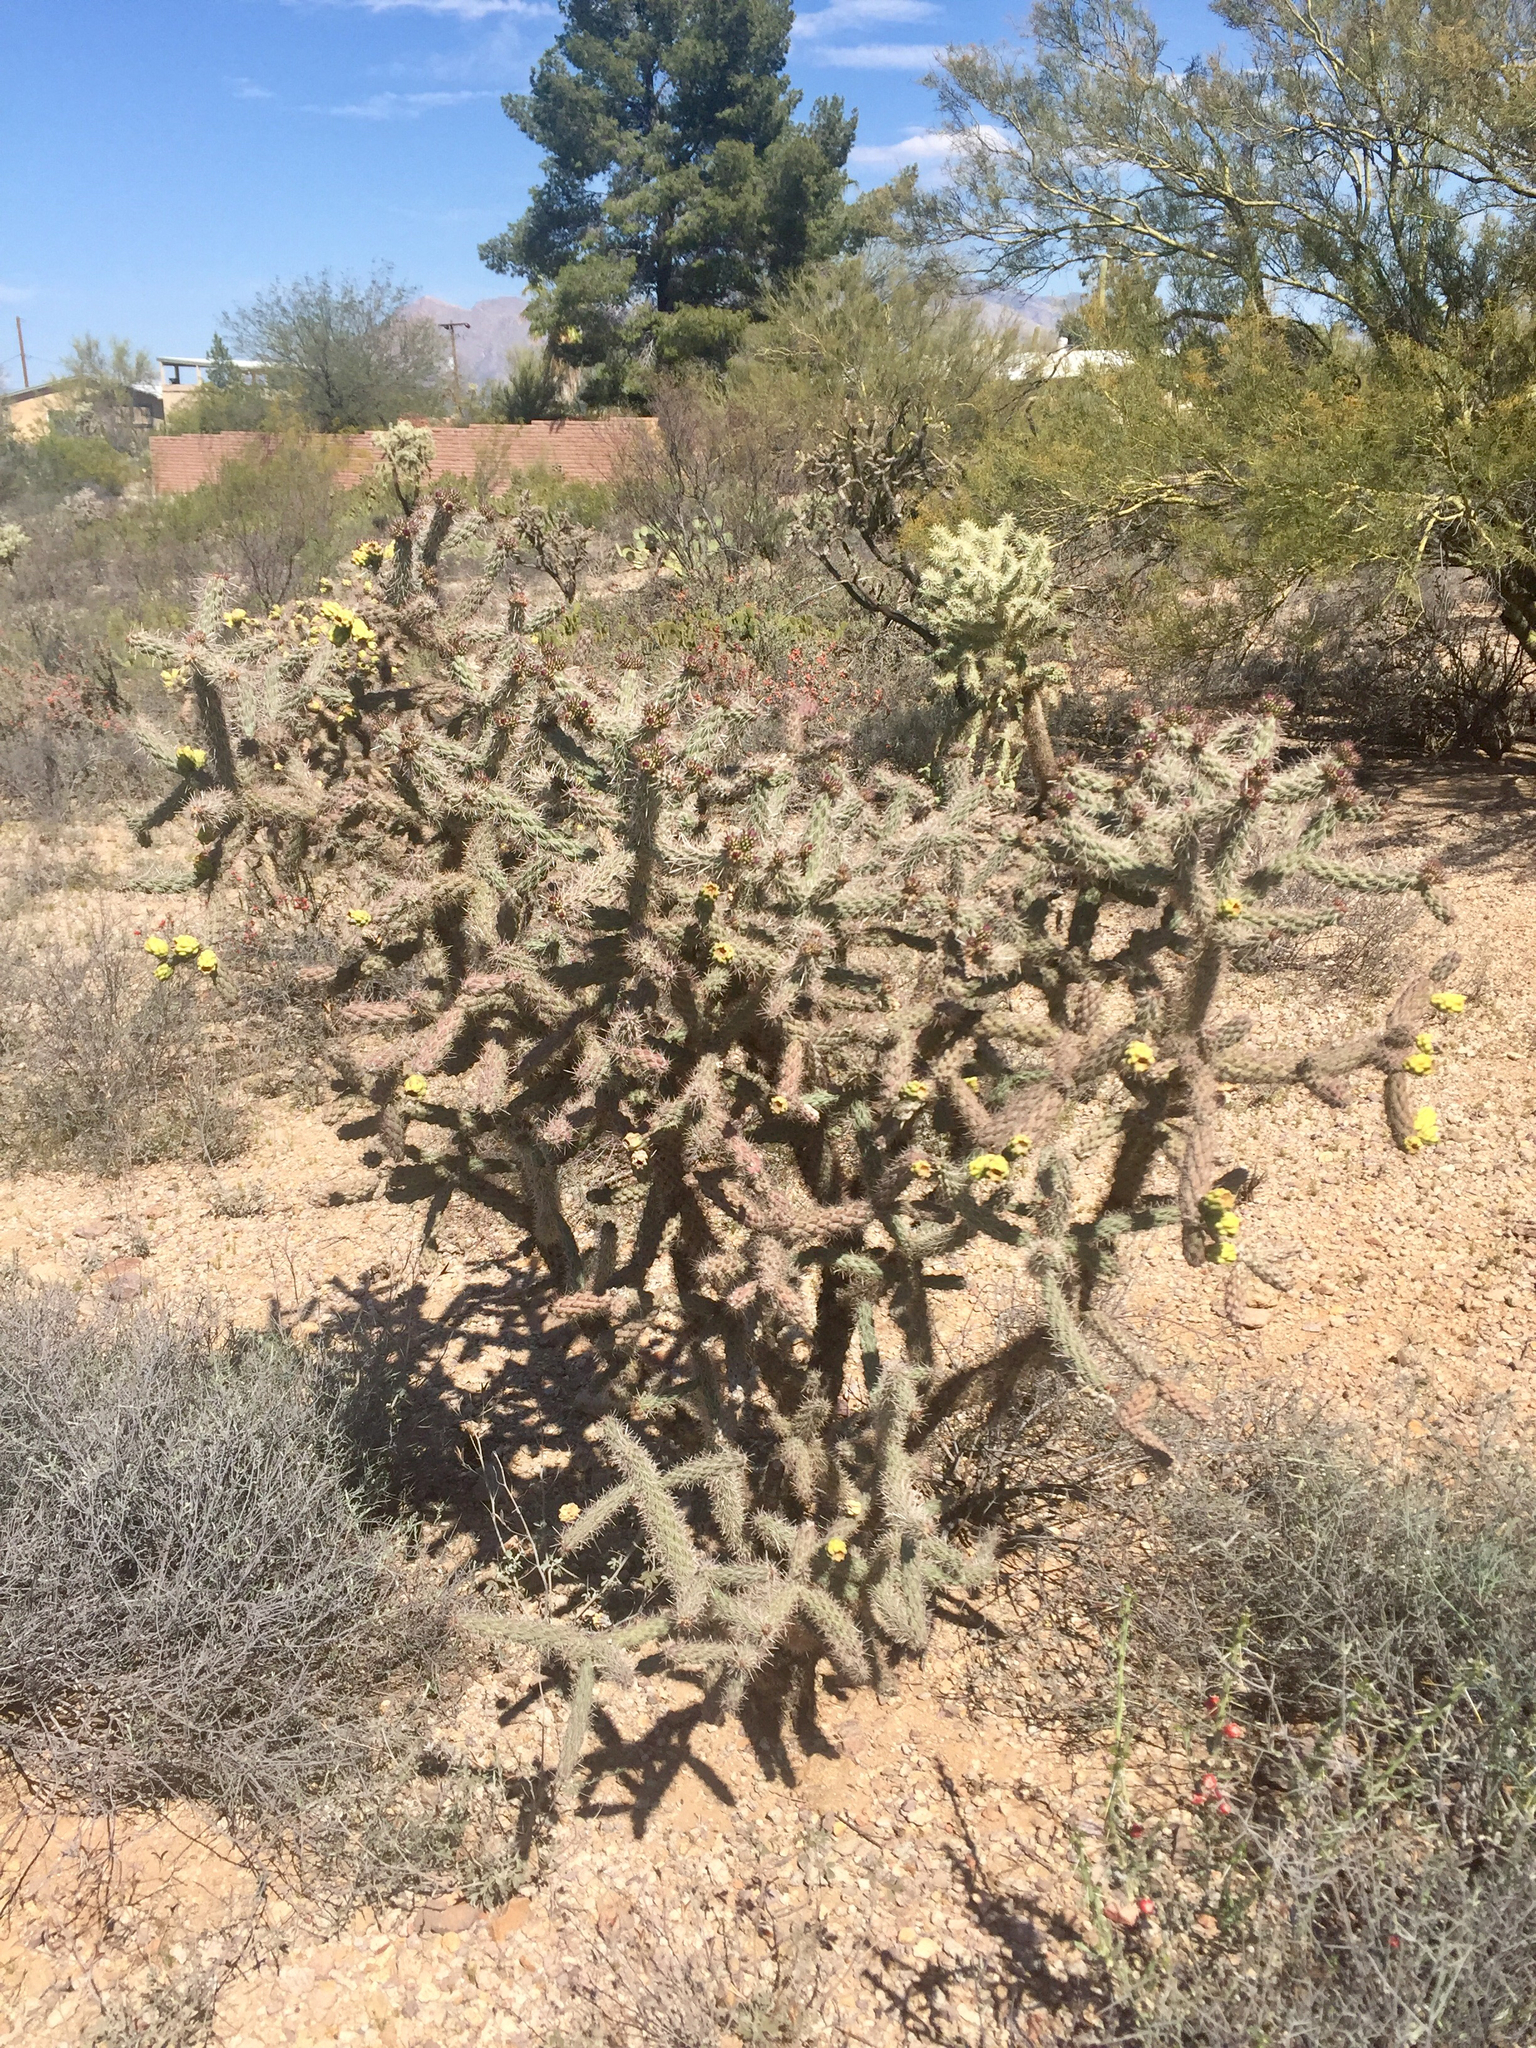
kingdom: Plantae
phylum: Tracheophyta
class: Magnoliopsida
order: Caryophyllales
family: Cactaceae
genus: Cylindropuntia
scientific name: Cylindropuntia imbricata
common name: Candelabrum cactus
